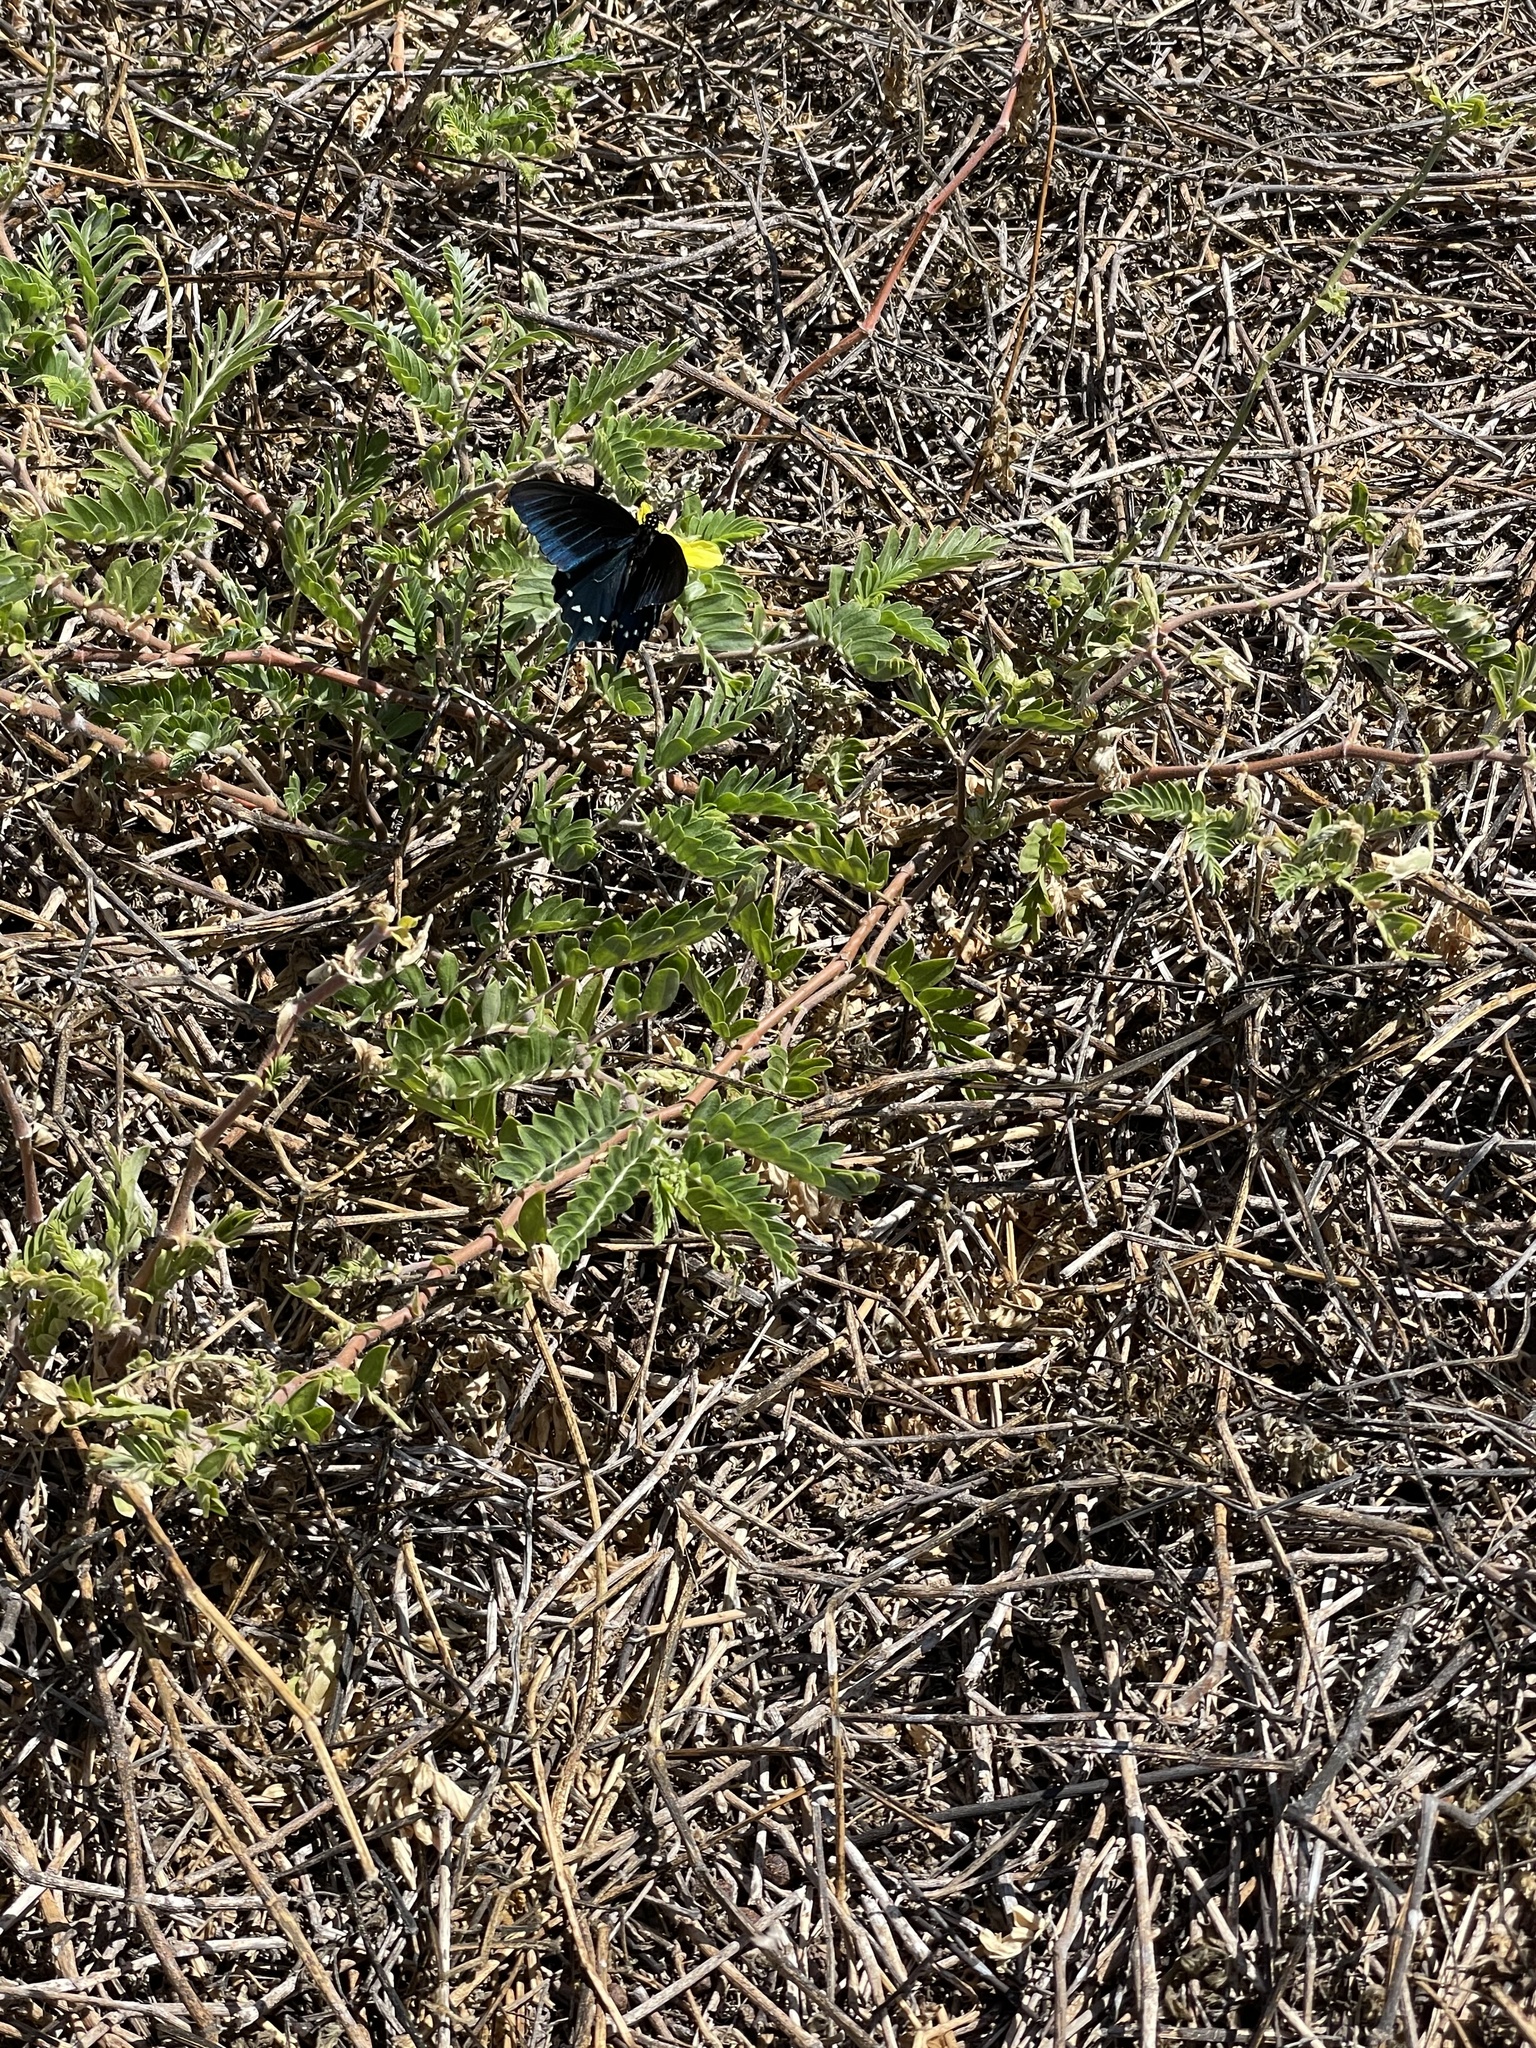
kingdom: Animalia
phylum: Arthropoda
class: Insecta
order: Lepidoptera
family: Papilionidae
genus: Battus
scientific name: Battus philenor
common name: Pipevine swallowtail
